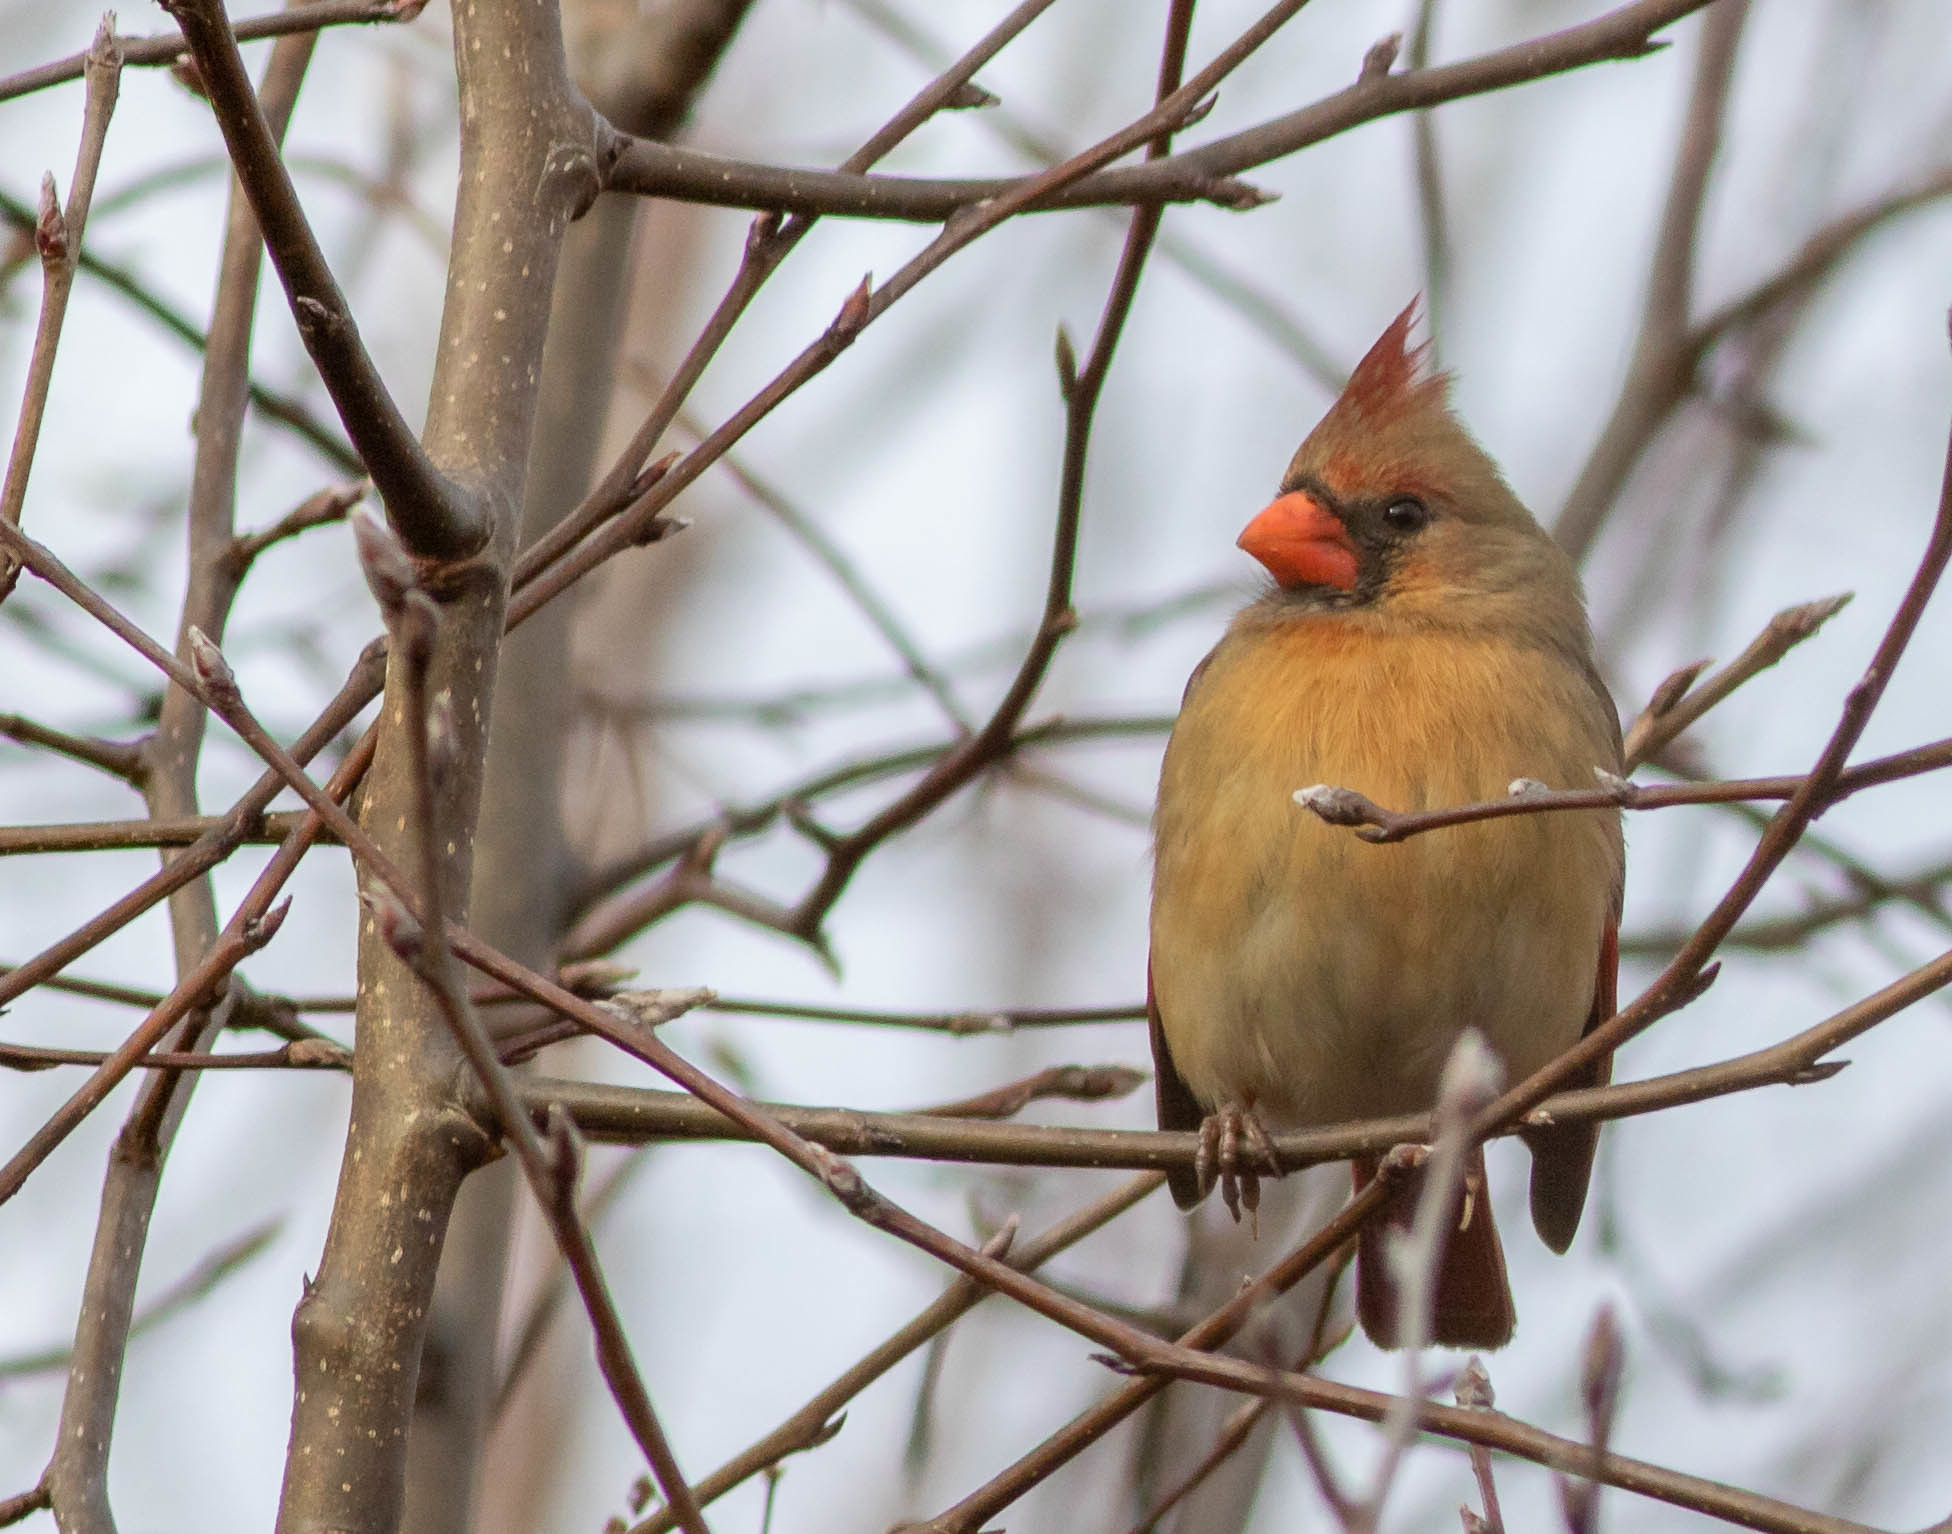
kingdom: Animalia
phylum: Chordata
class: Aves
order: Passeriformes
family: Cardinalidae
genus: Cardinalis
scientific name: Cardinalis cardinalis
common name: Northern cardinal
